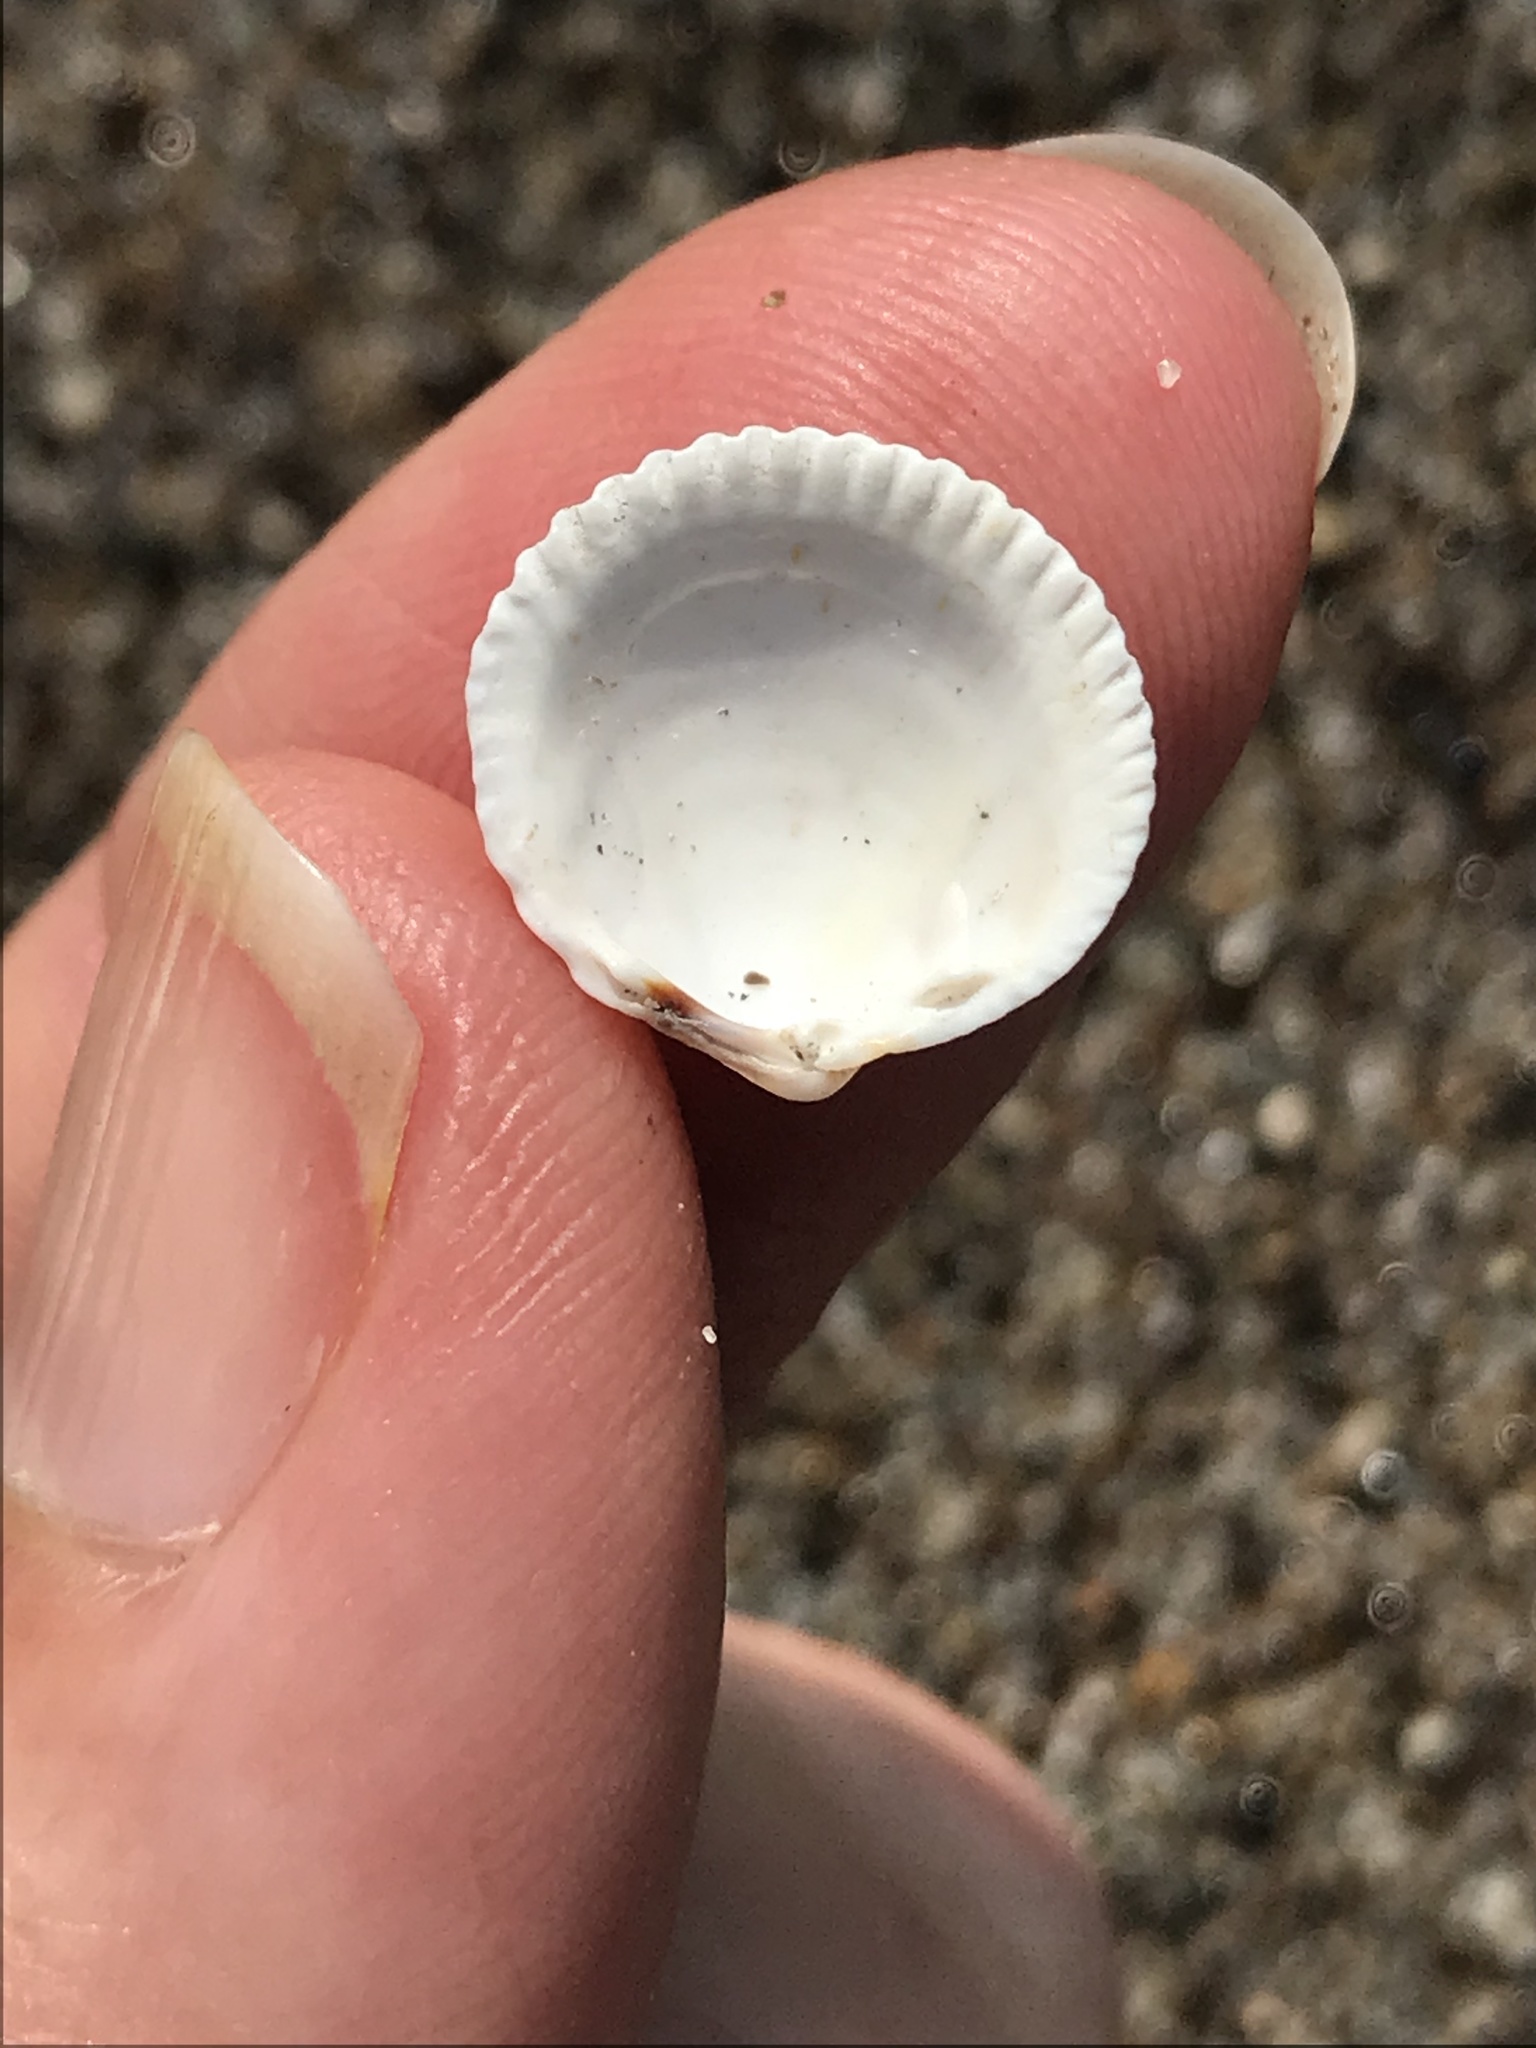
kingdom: Animalia
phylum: Mollusca
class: Bivalvia
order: Cardiida
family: Cardiidae
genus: Clinocardium
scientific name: Clinocardium nuttallii
